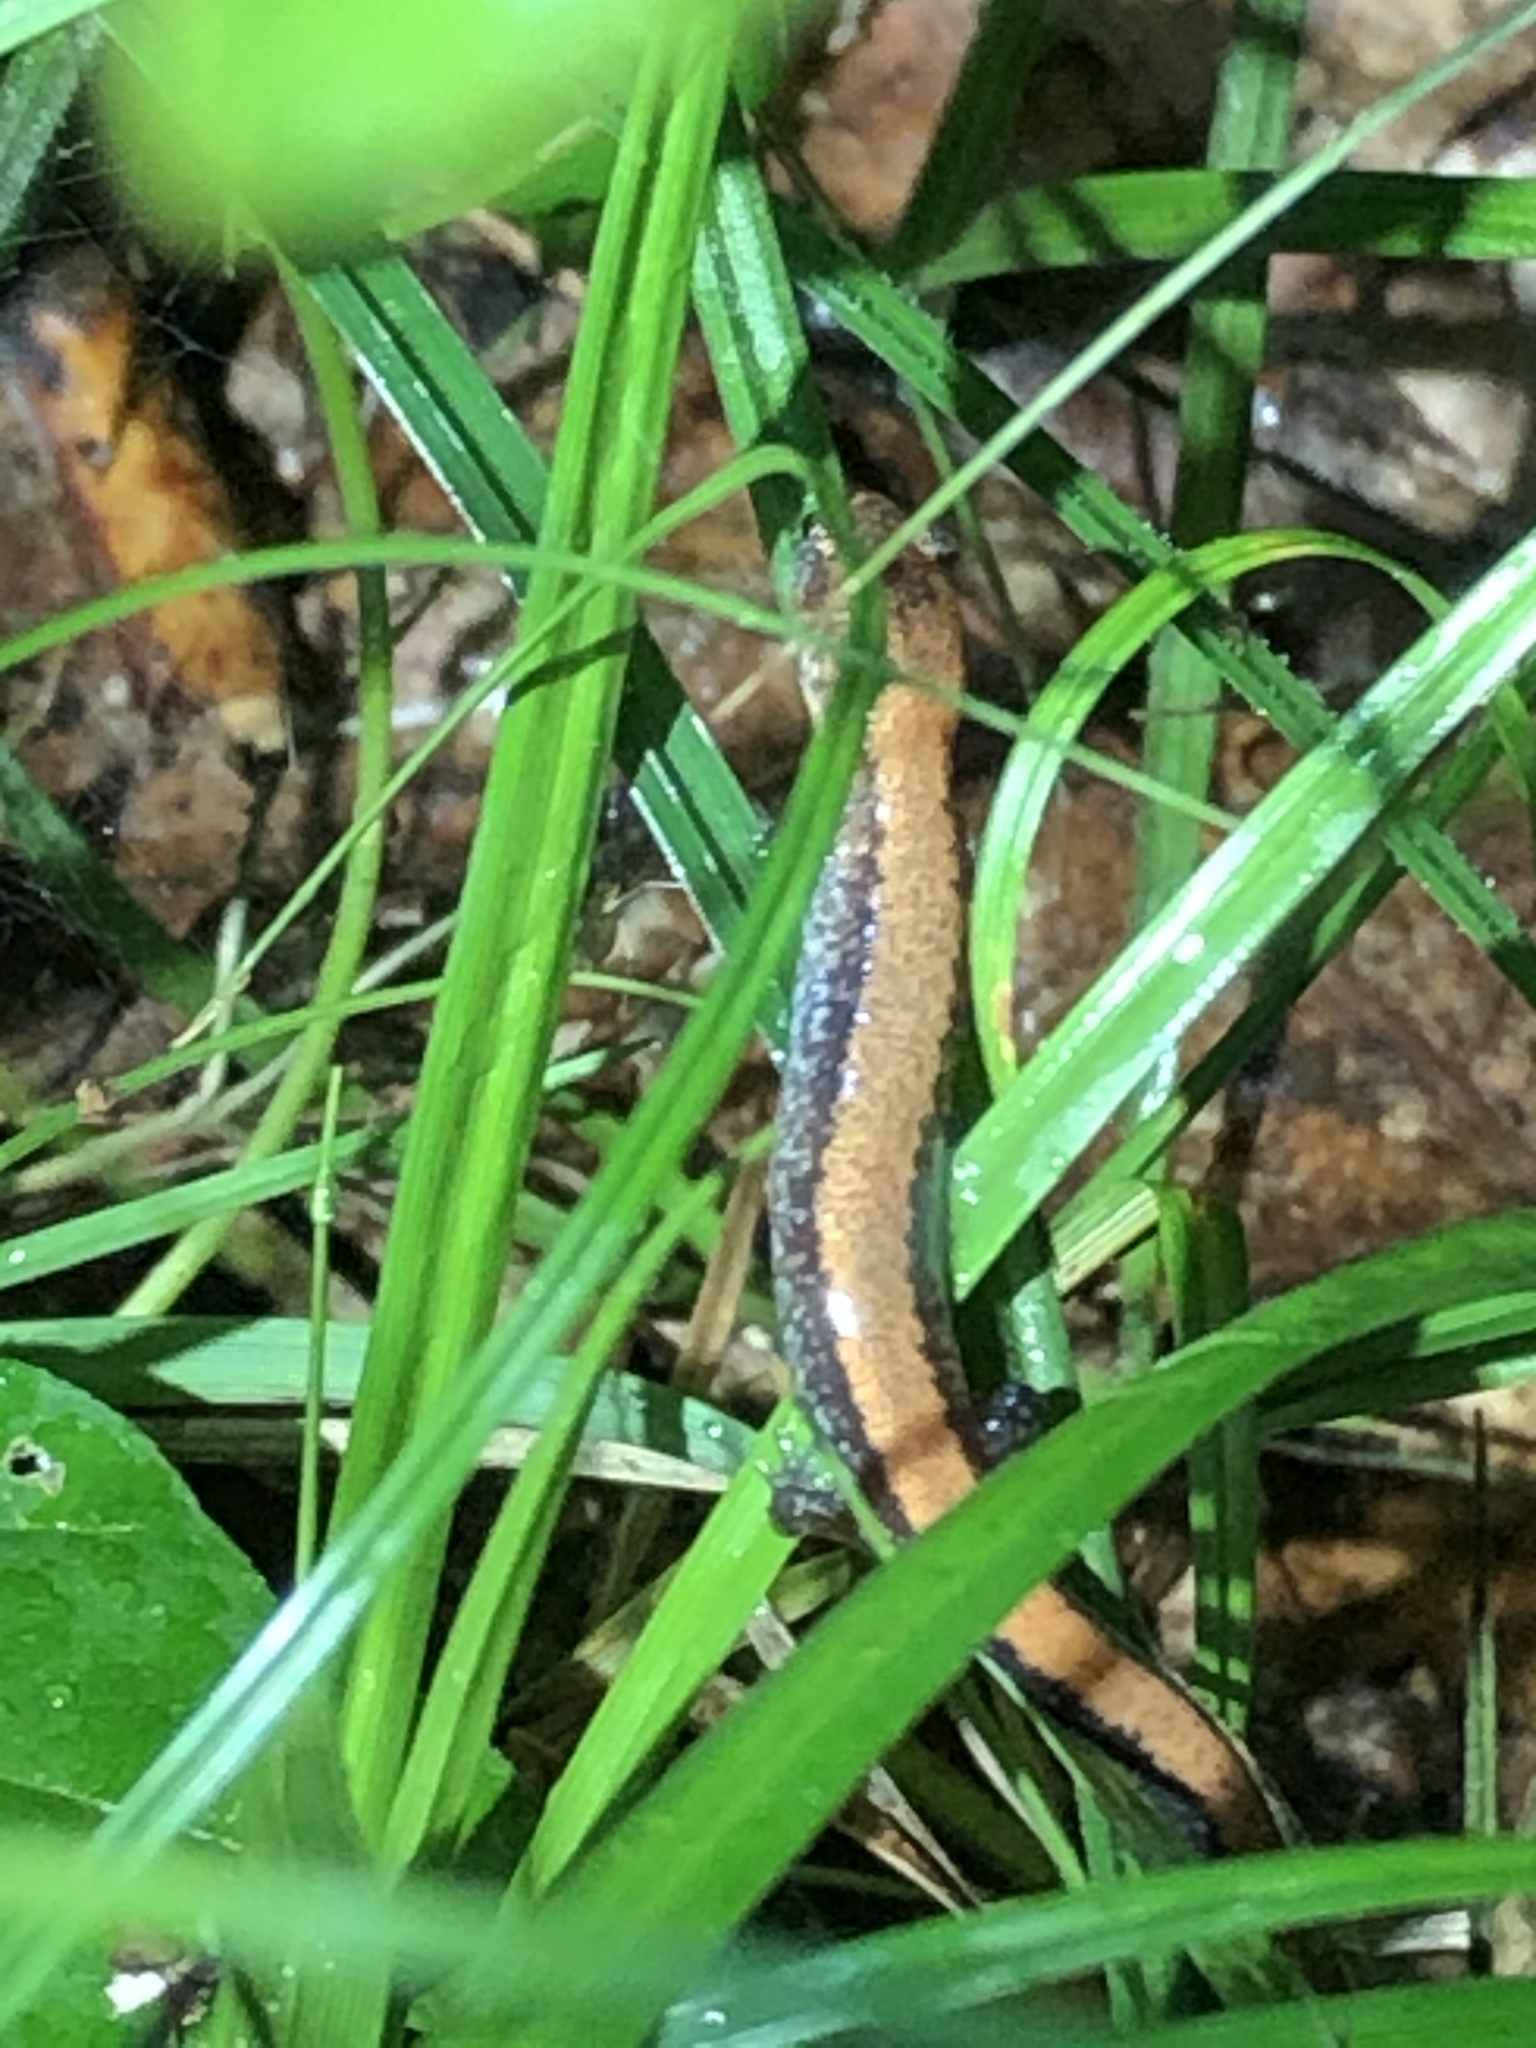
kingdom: Animalia
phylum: Chordata
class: Amphibia
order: Caudata
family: Plethodontidae
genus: Plethodon
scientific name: Plethodon cinereus
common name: Redback salamander
